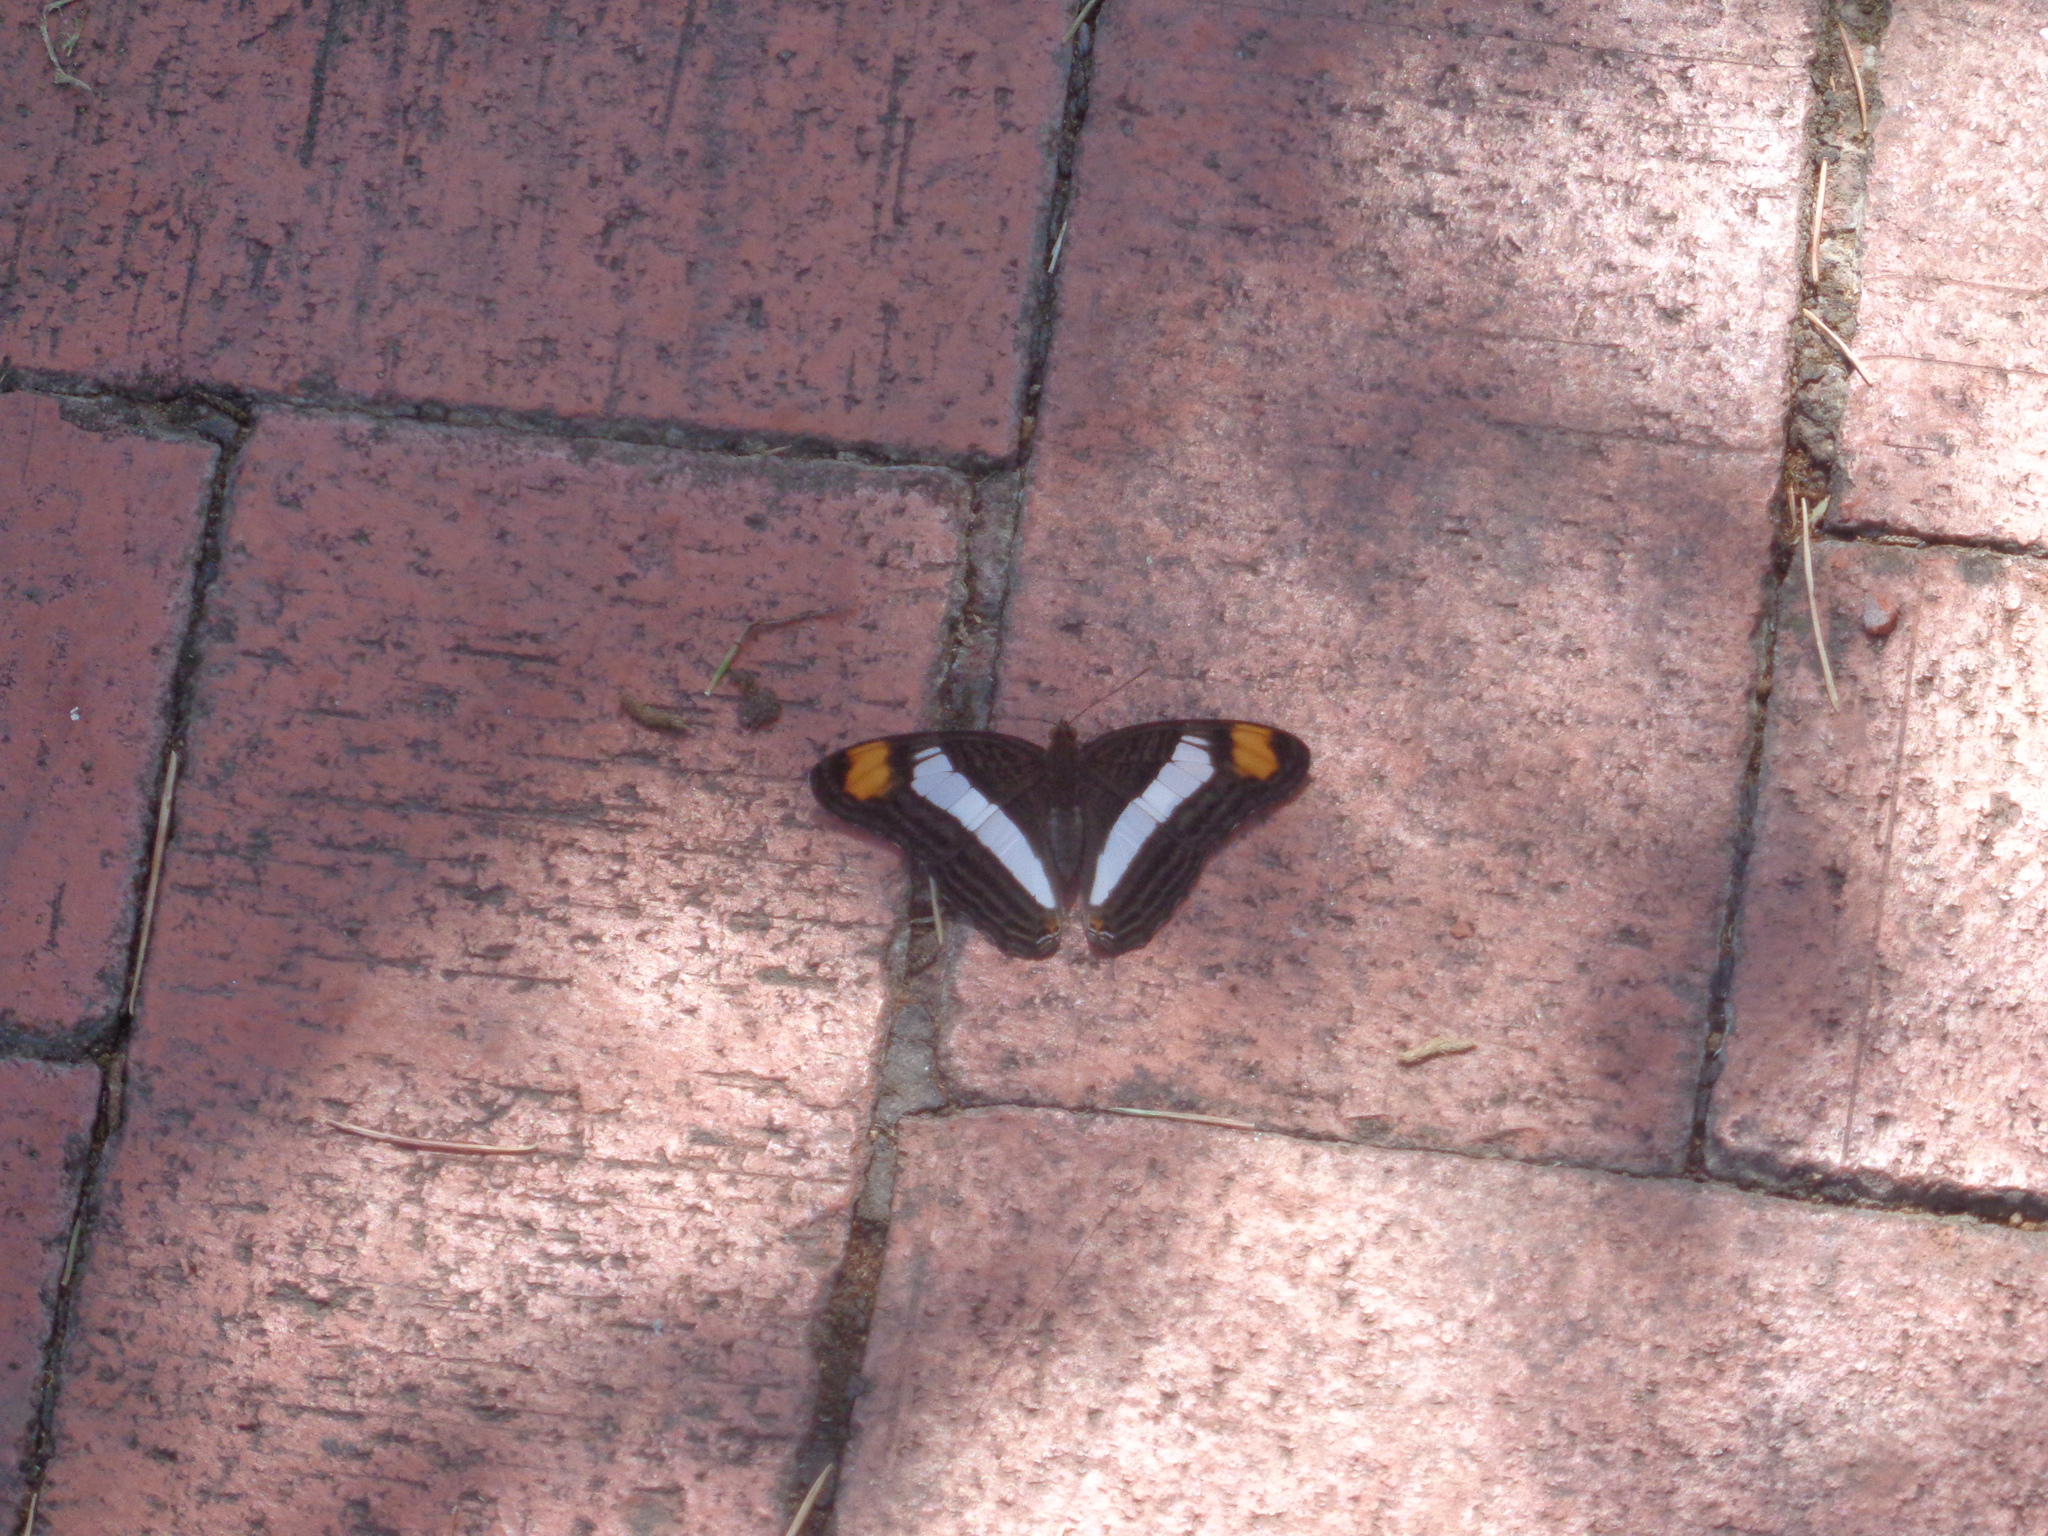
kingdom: Animalia
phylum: Arthropoda
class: Insecta
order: Lepidoptera
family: Nymphalidae
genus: Limenitis
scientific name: Limenitis Adelpha basiloides
